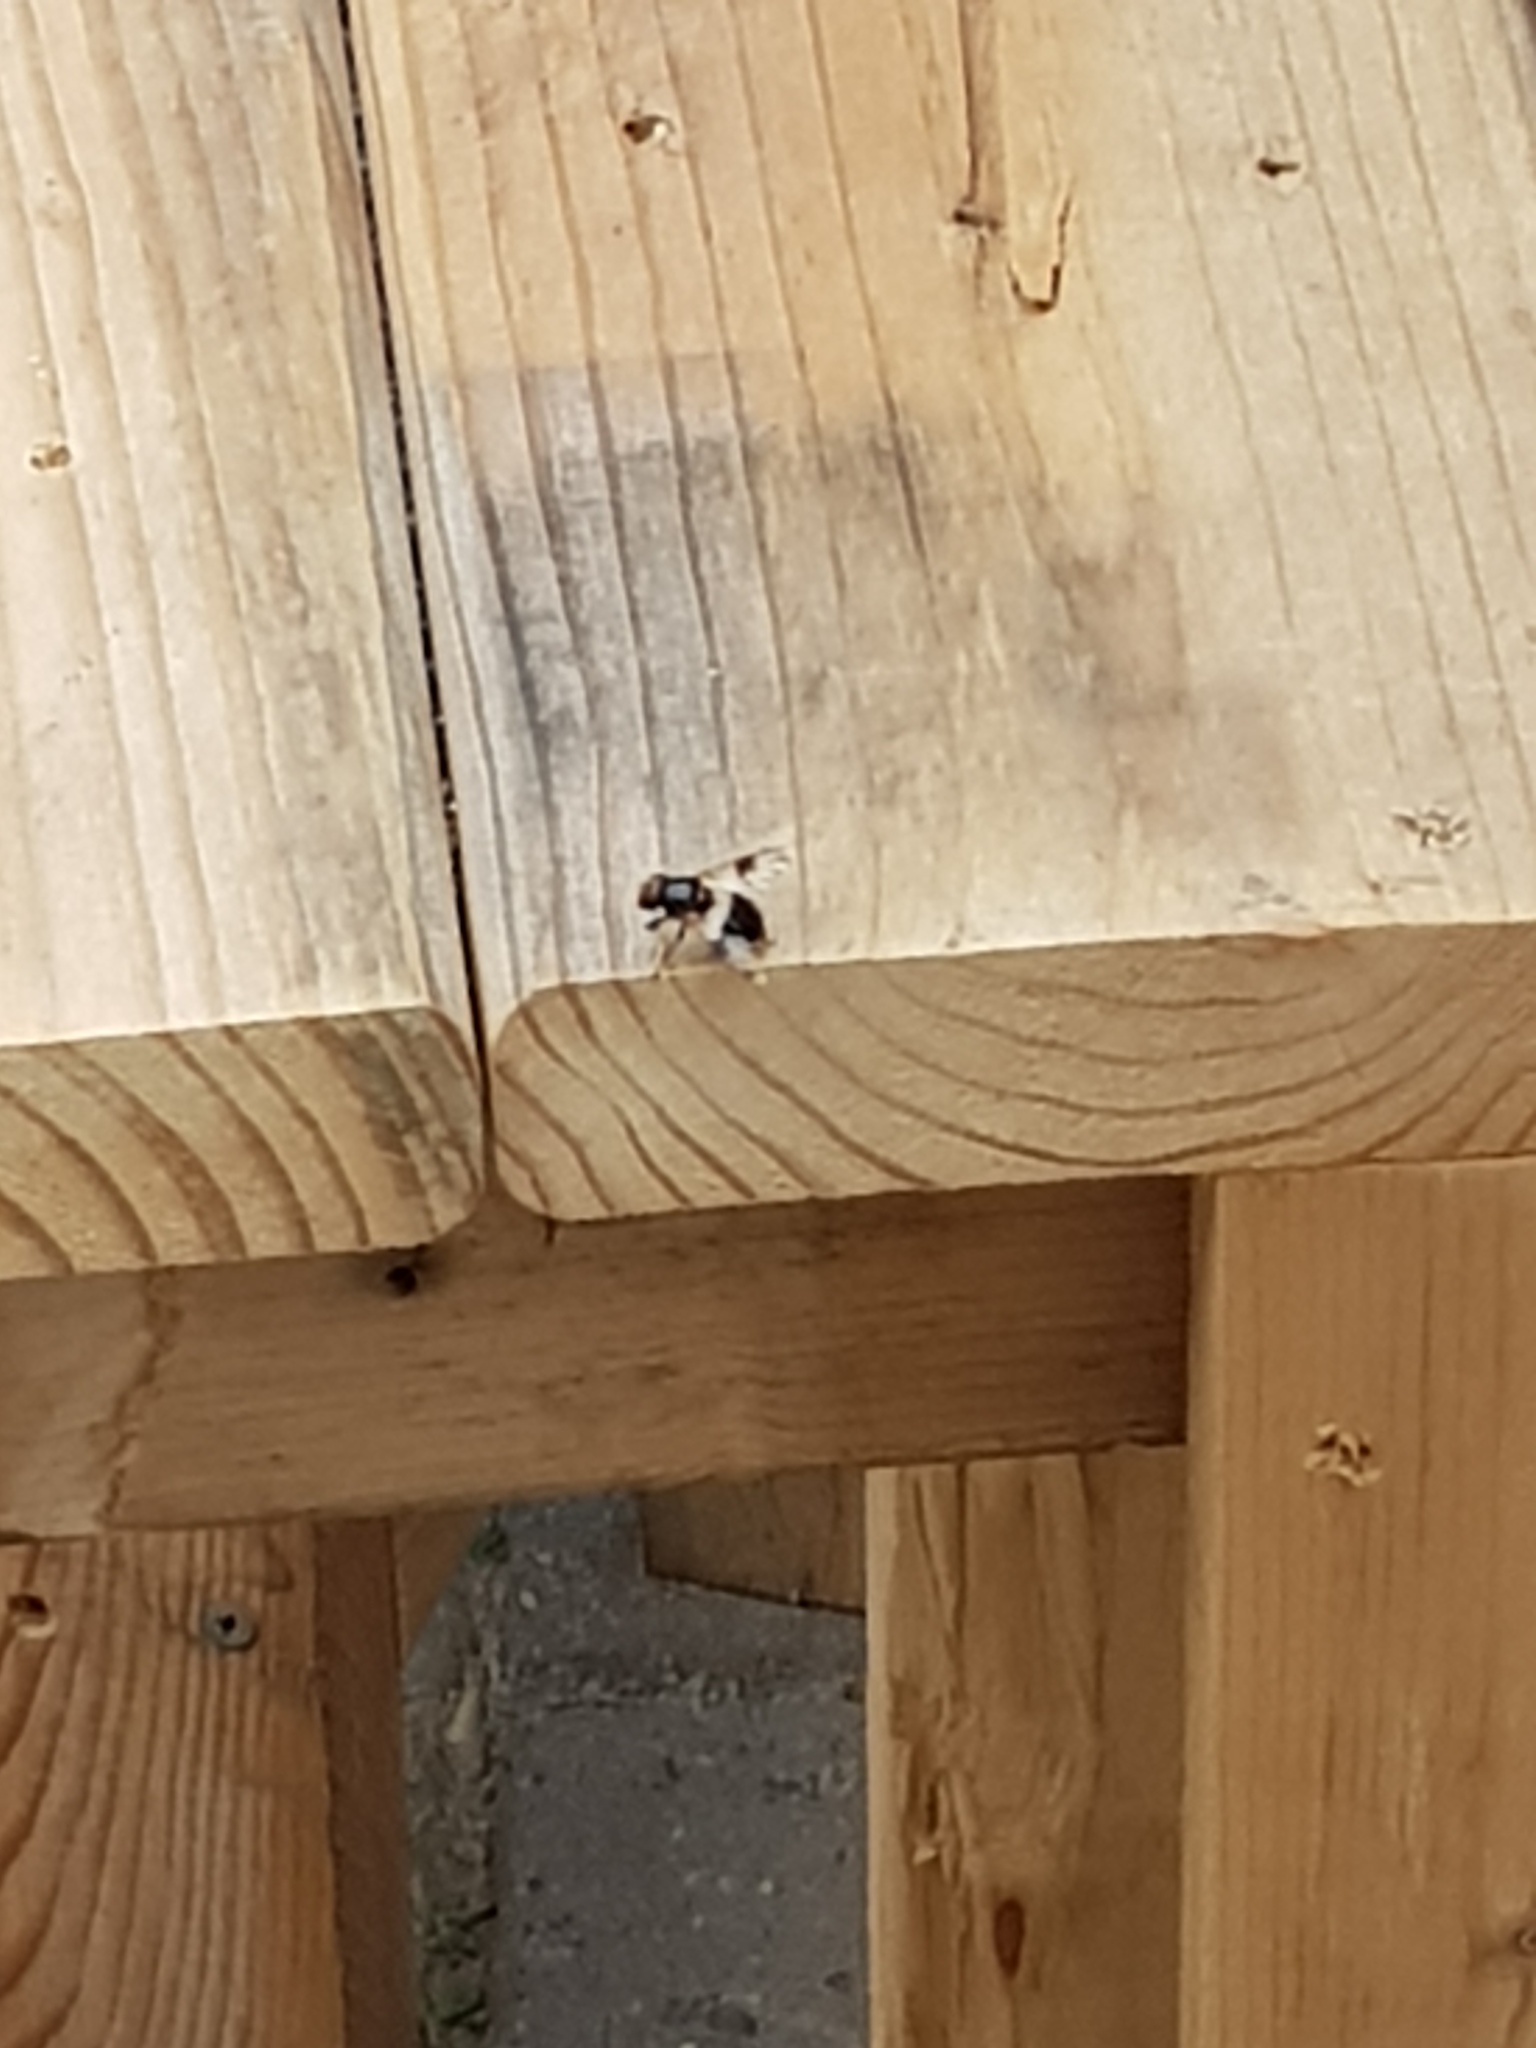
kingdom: Animalia
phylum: Arthropoda
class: Insecta
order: Diptera
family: Syrphidae
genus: Volucella
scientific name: Volucella pellucens
